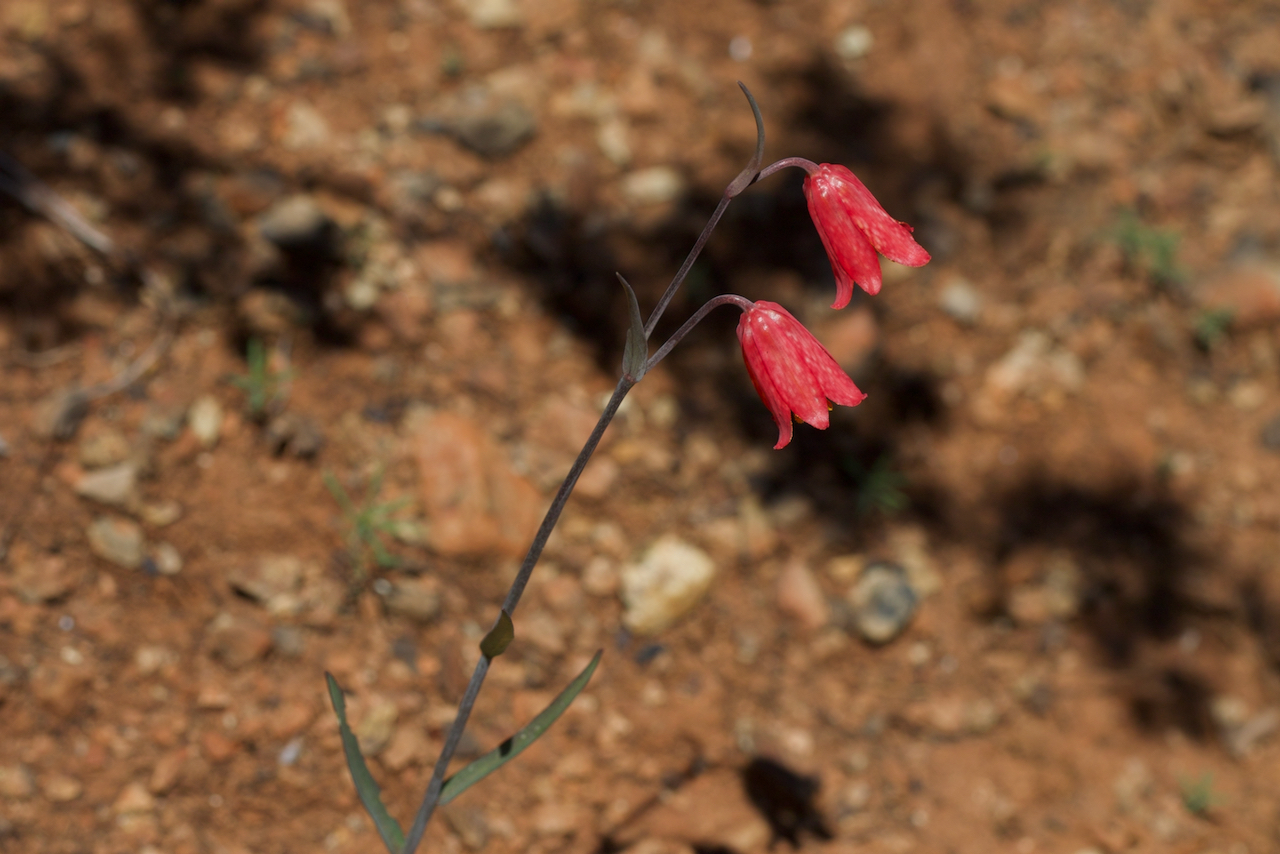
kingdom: Plantae
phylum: Tracheophyta
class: Liliopsida
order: Liliales
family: Liliaceae
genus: Fritillaria
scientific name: Fritillaria recurva
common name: Scarlet fritillary
